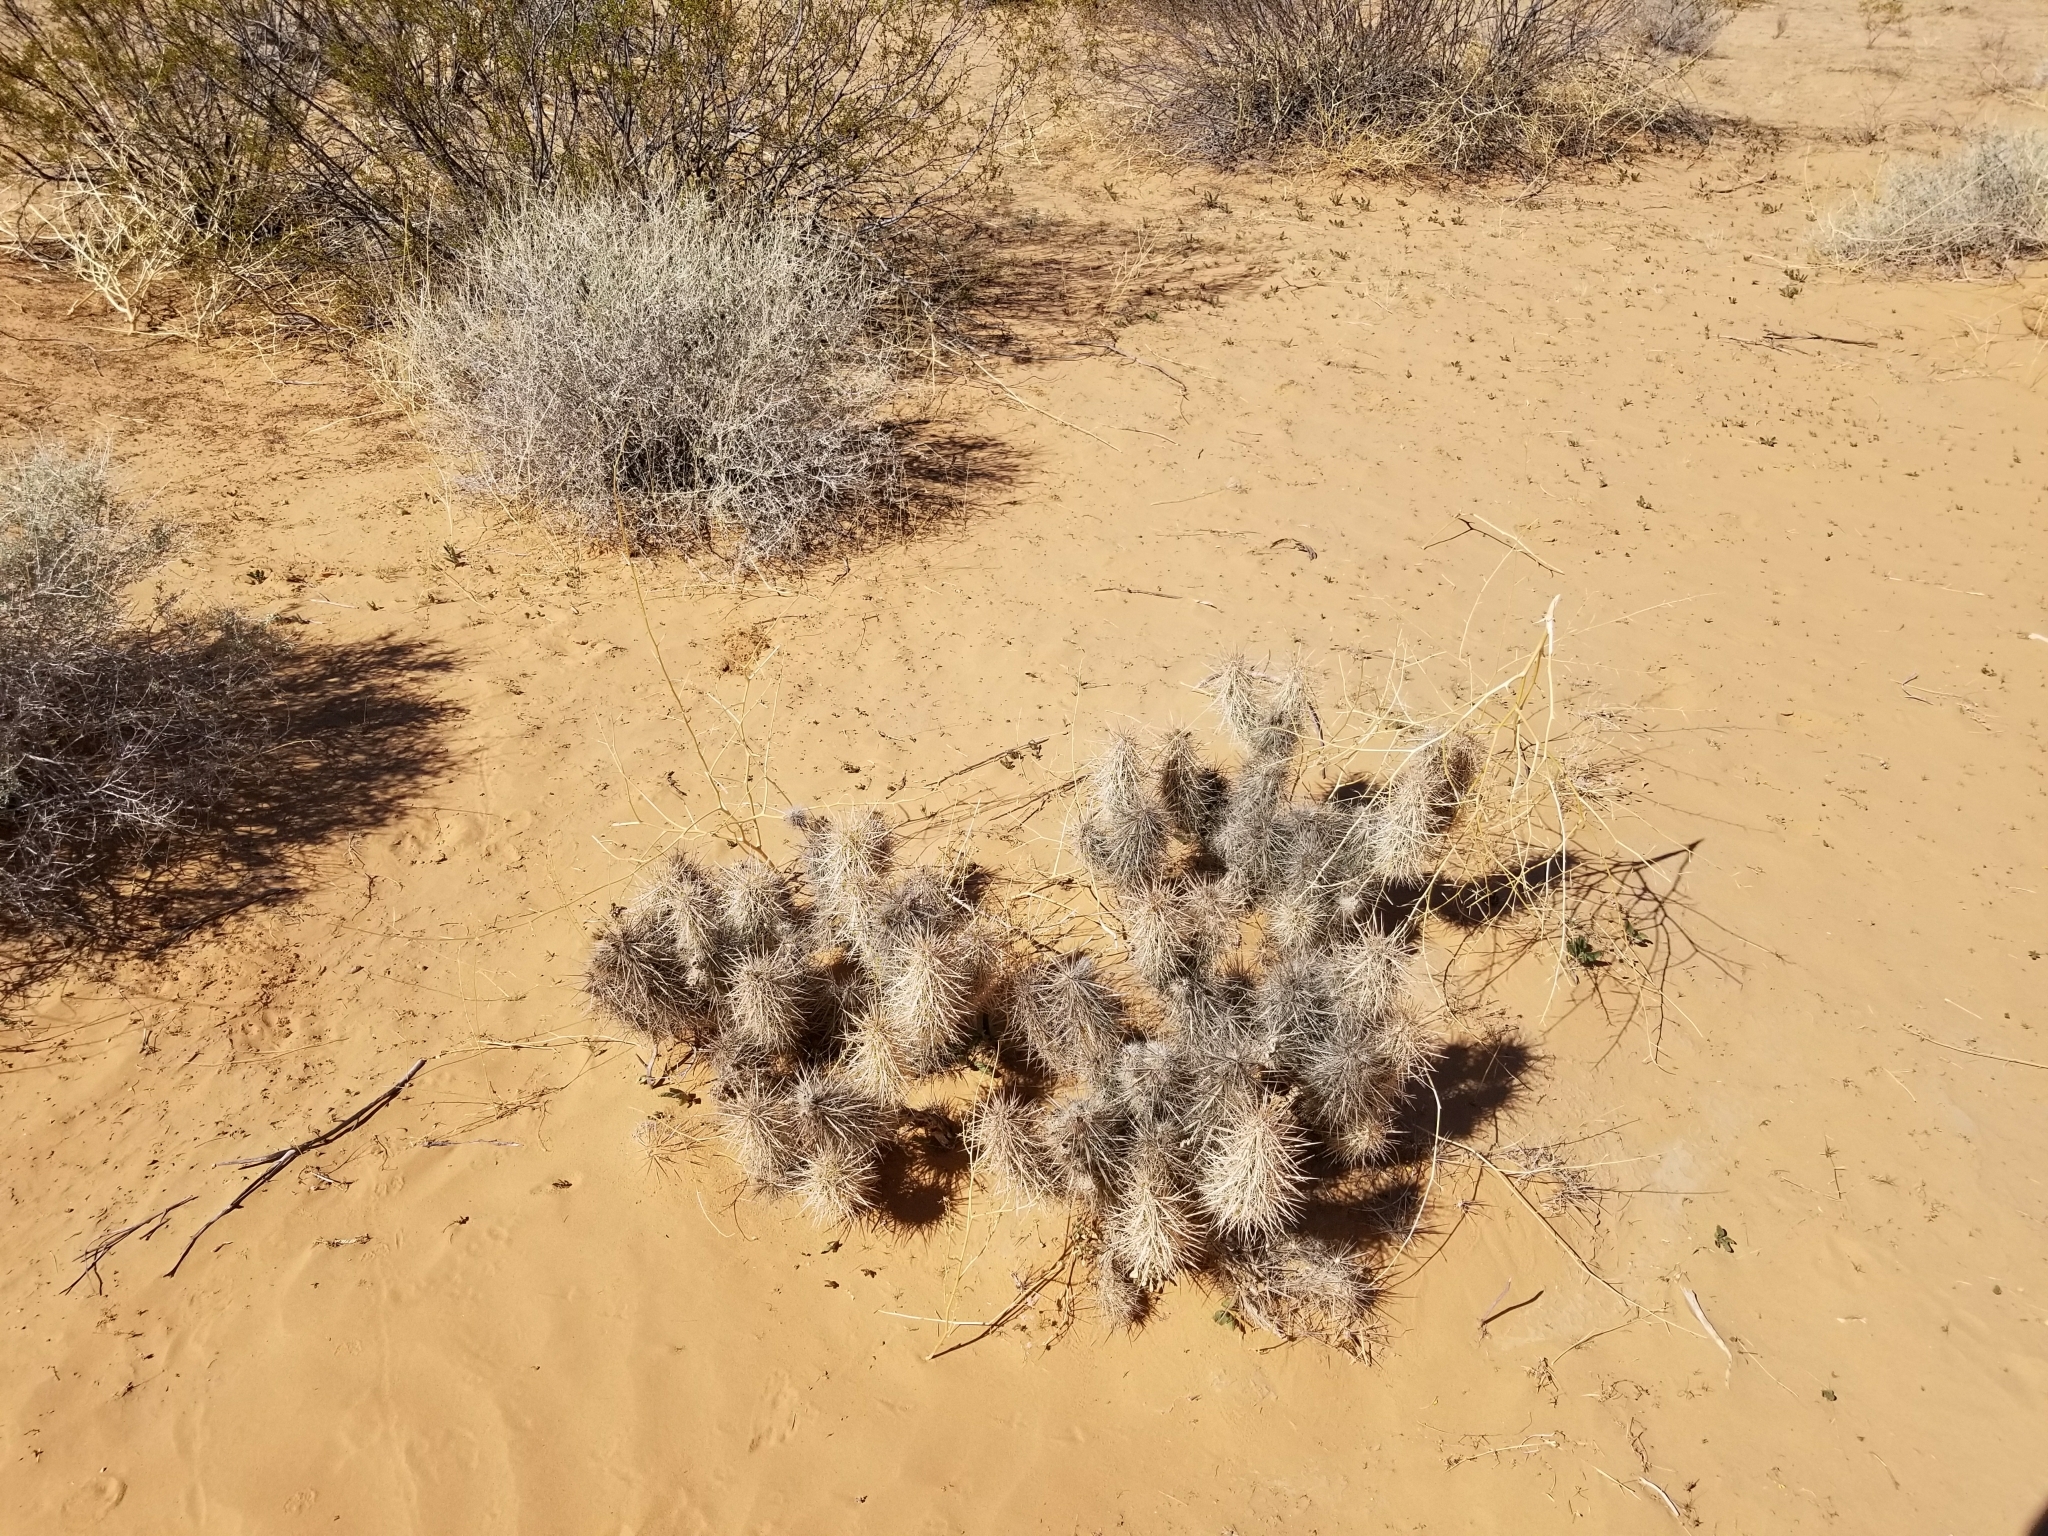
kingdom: Plantae
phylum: Tracheophyta
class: Magnoliopsida
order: Caryophyllales
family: Cactaceae
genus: Grusonia
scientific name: Grusonia kunzei
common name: Wright's club cholla
